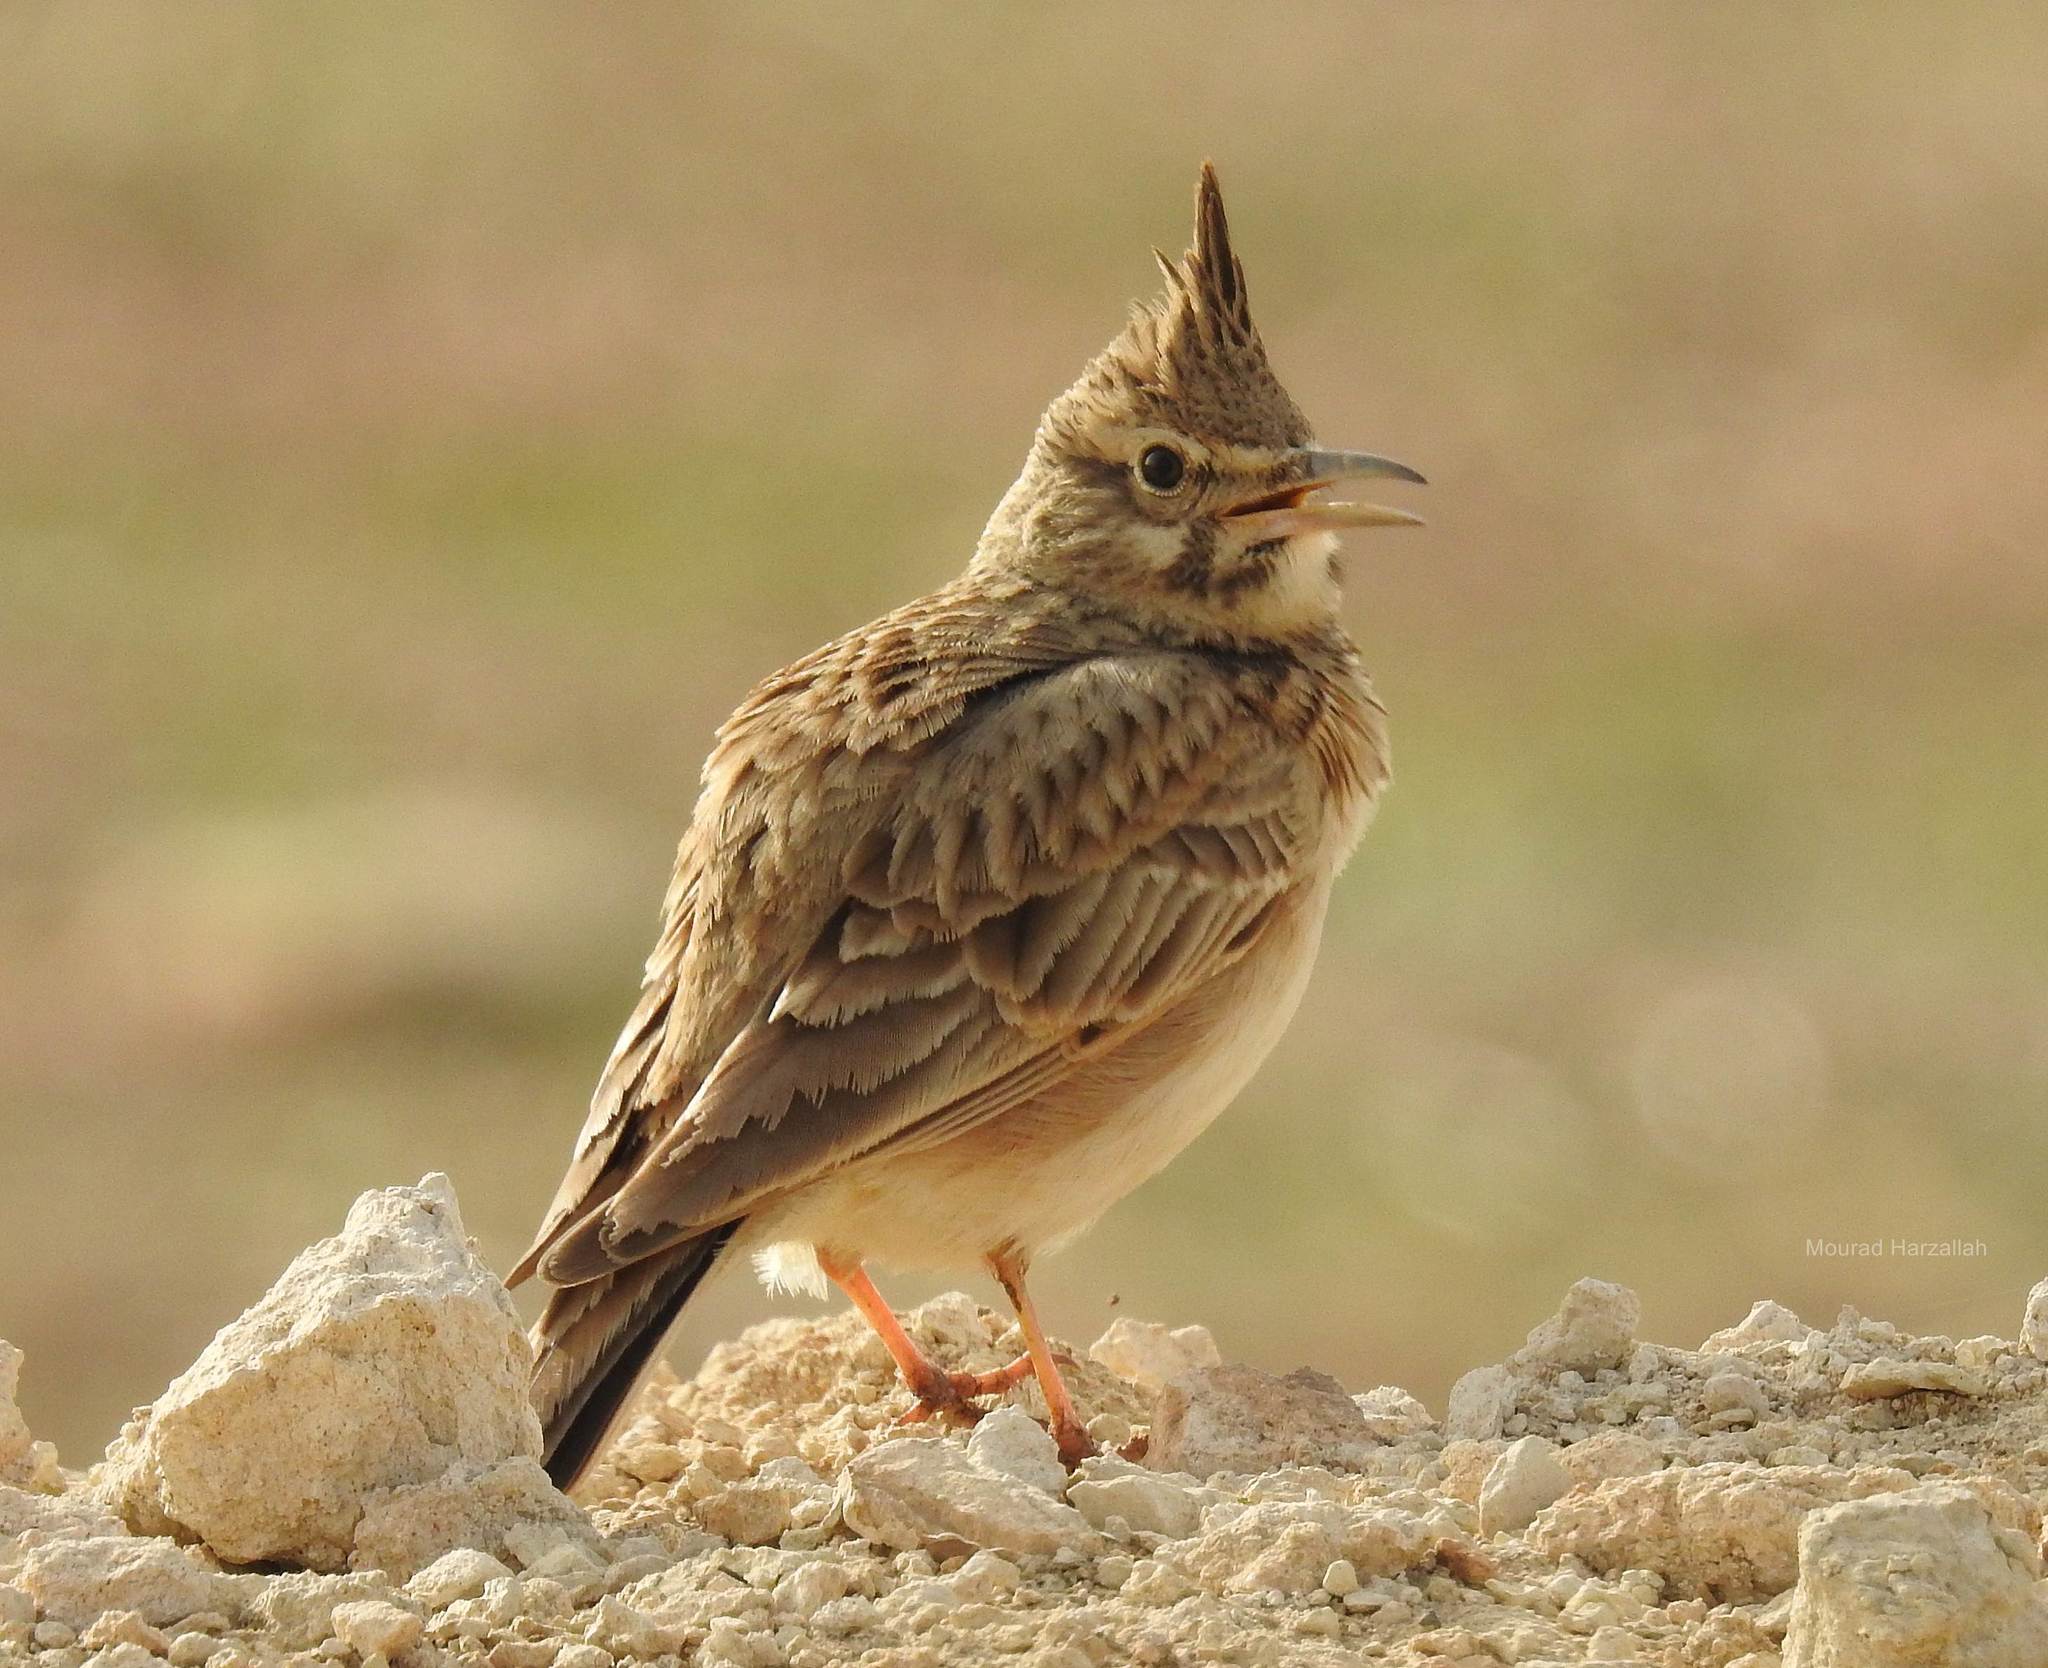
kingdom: Animalia
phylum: Chordata
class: Aves
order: Passeriformes
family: Alaudidae
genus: Galerida
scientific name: Galerida cristata
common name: Crested lark
